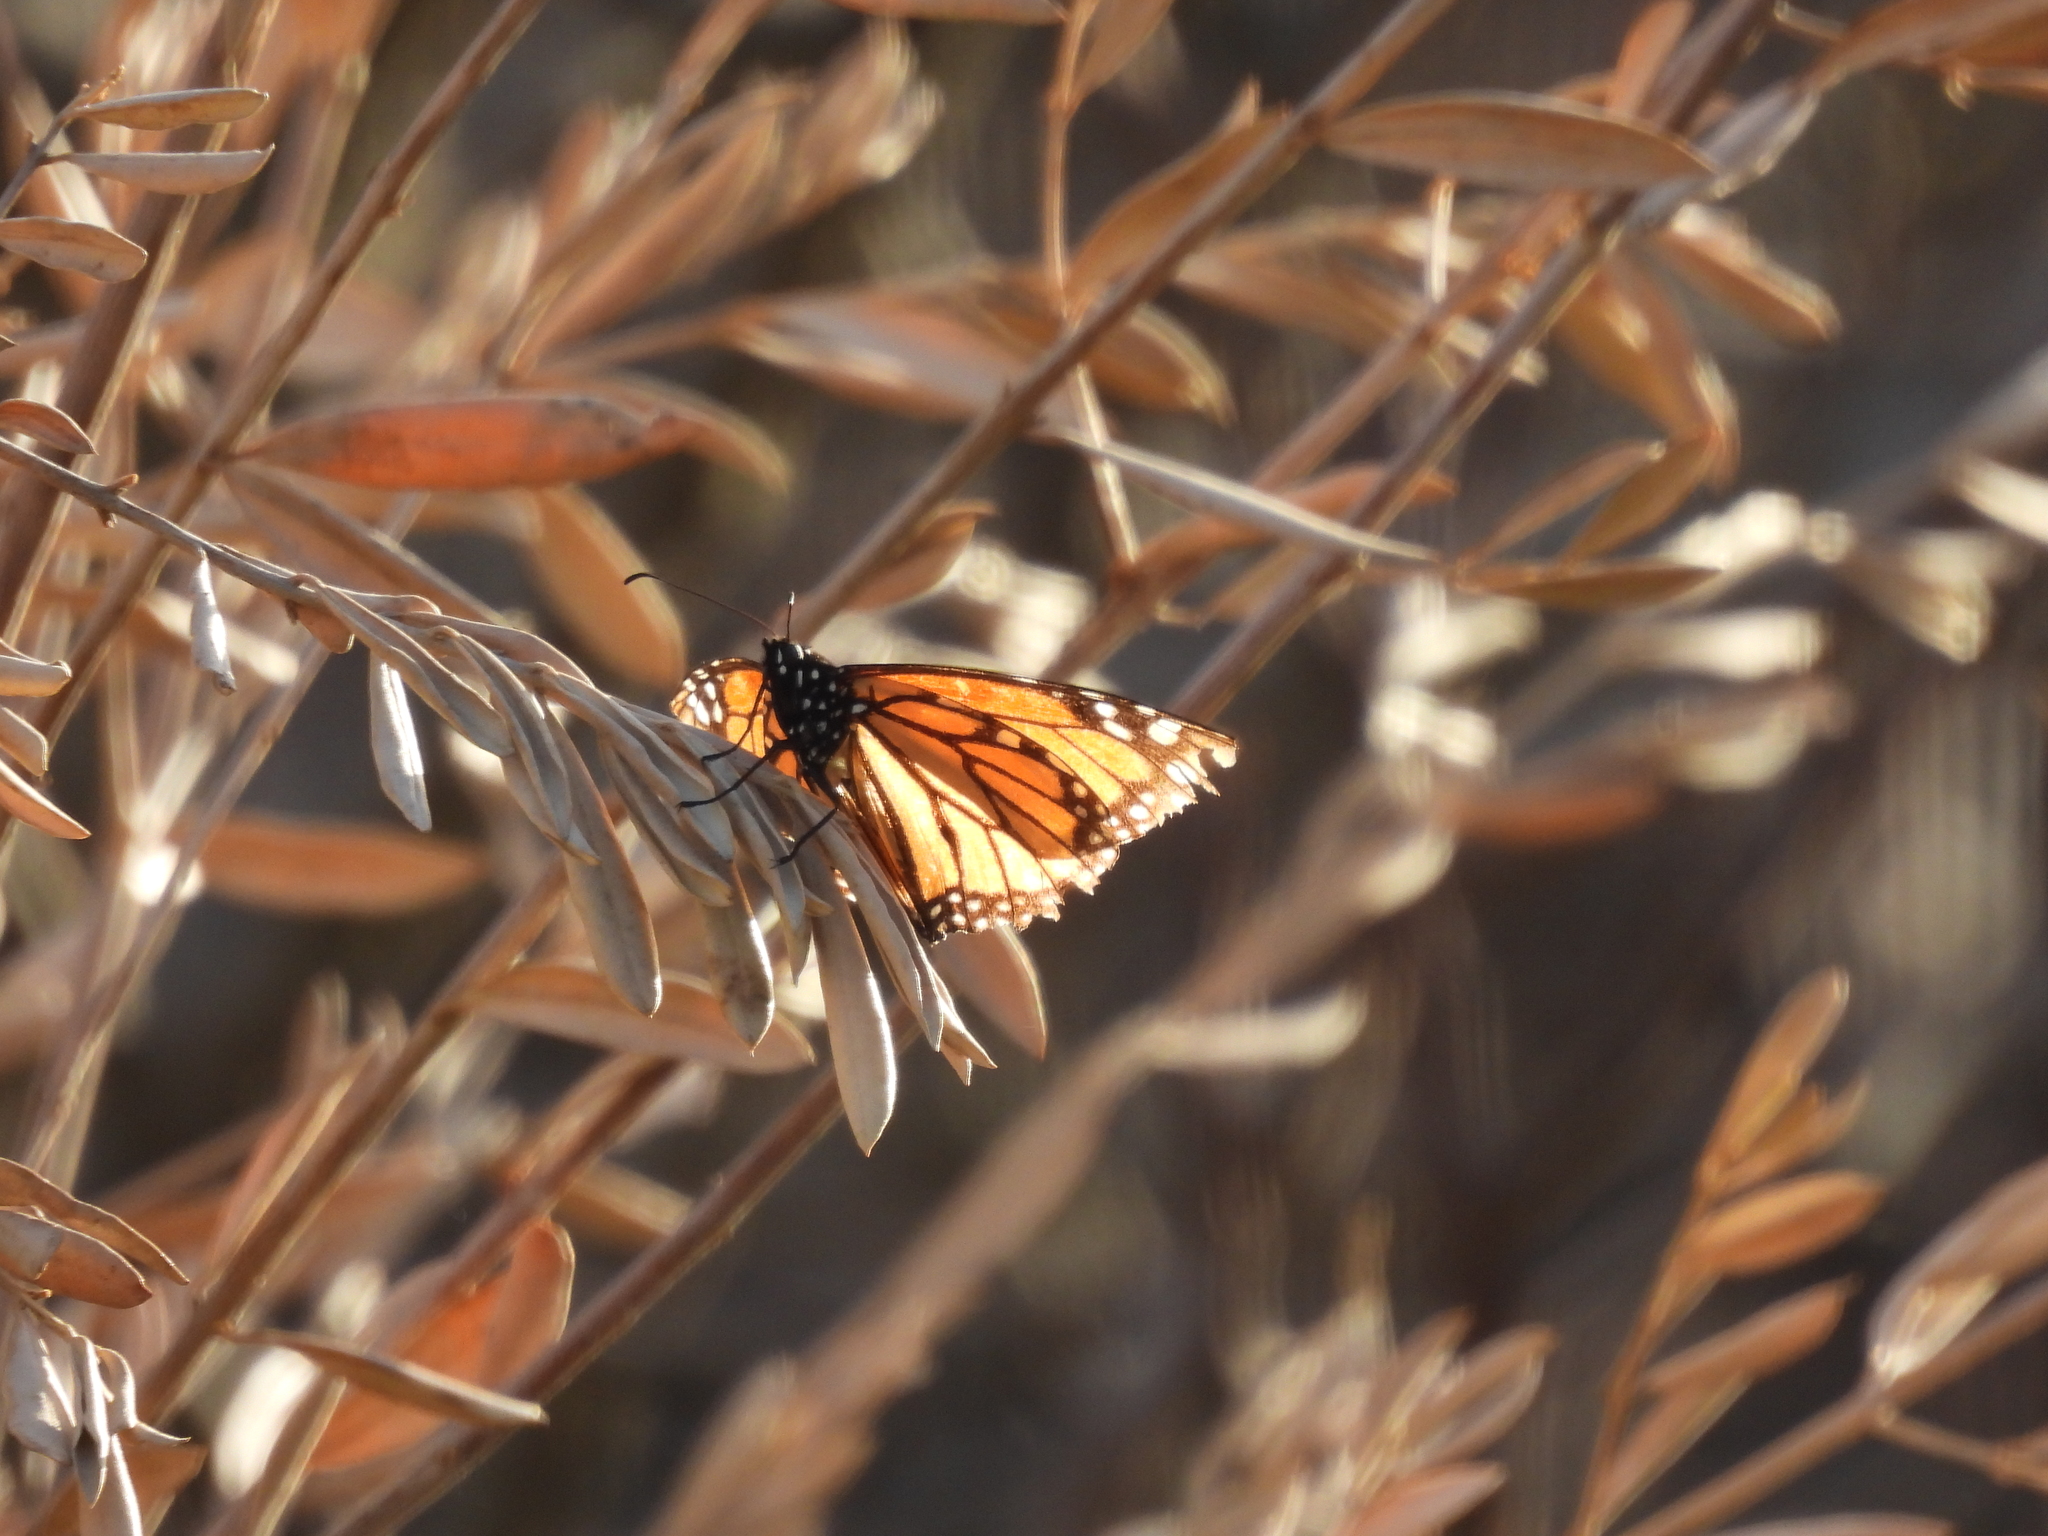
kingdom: Animalia
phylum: Arthropoda
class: Insecta
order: Lepidoptera
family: Nymphalidae
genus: Danaus
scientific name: Danaus plexippus
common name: Monarch
